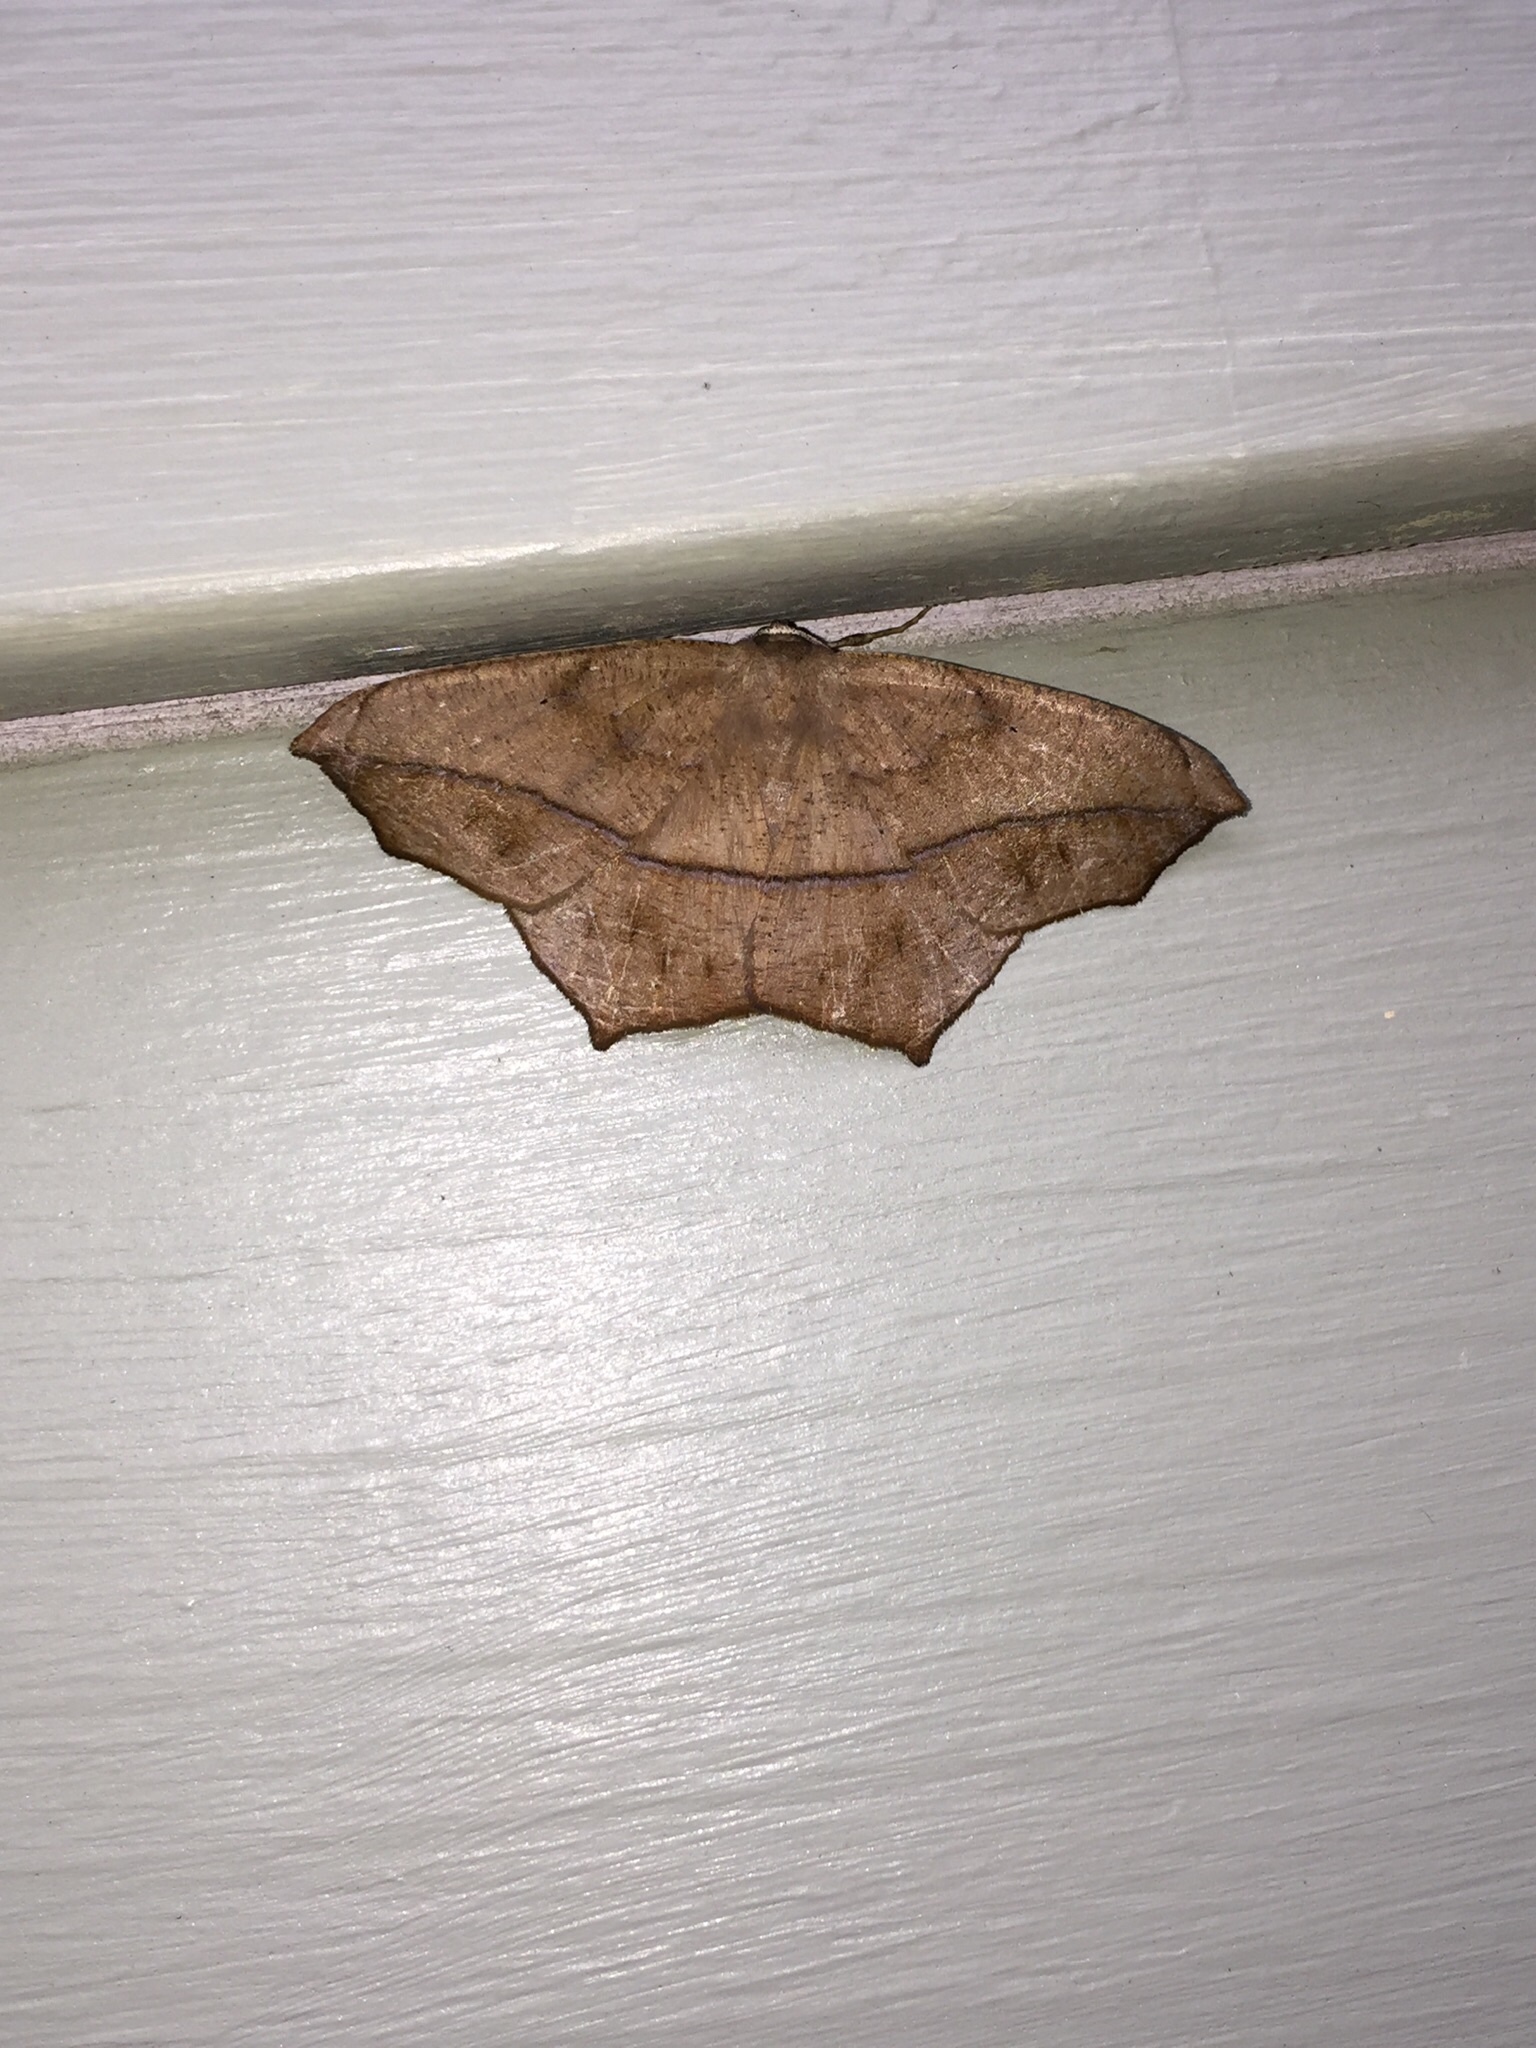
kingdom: Animalia
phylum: Arthropoda
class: Insecta
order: Lepidoptera
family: Geometridae
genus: Prochoerodes
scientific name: Prochoerodes lineola
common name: Large maple spanworm
